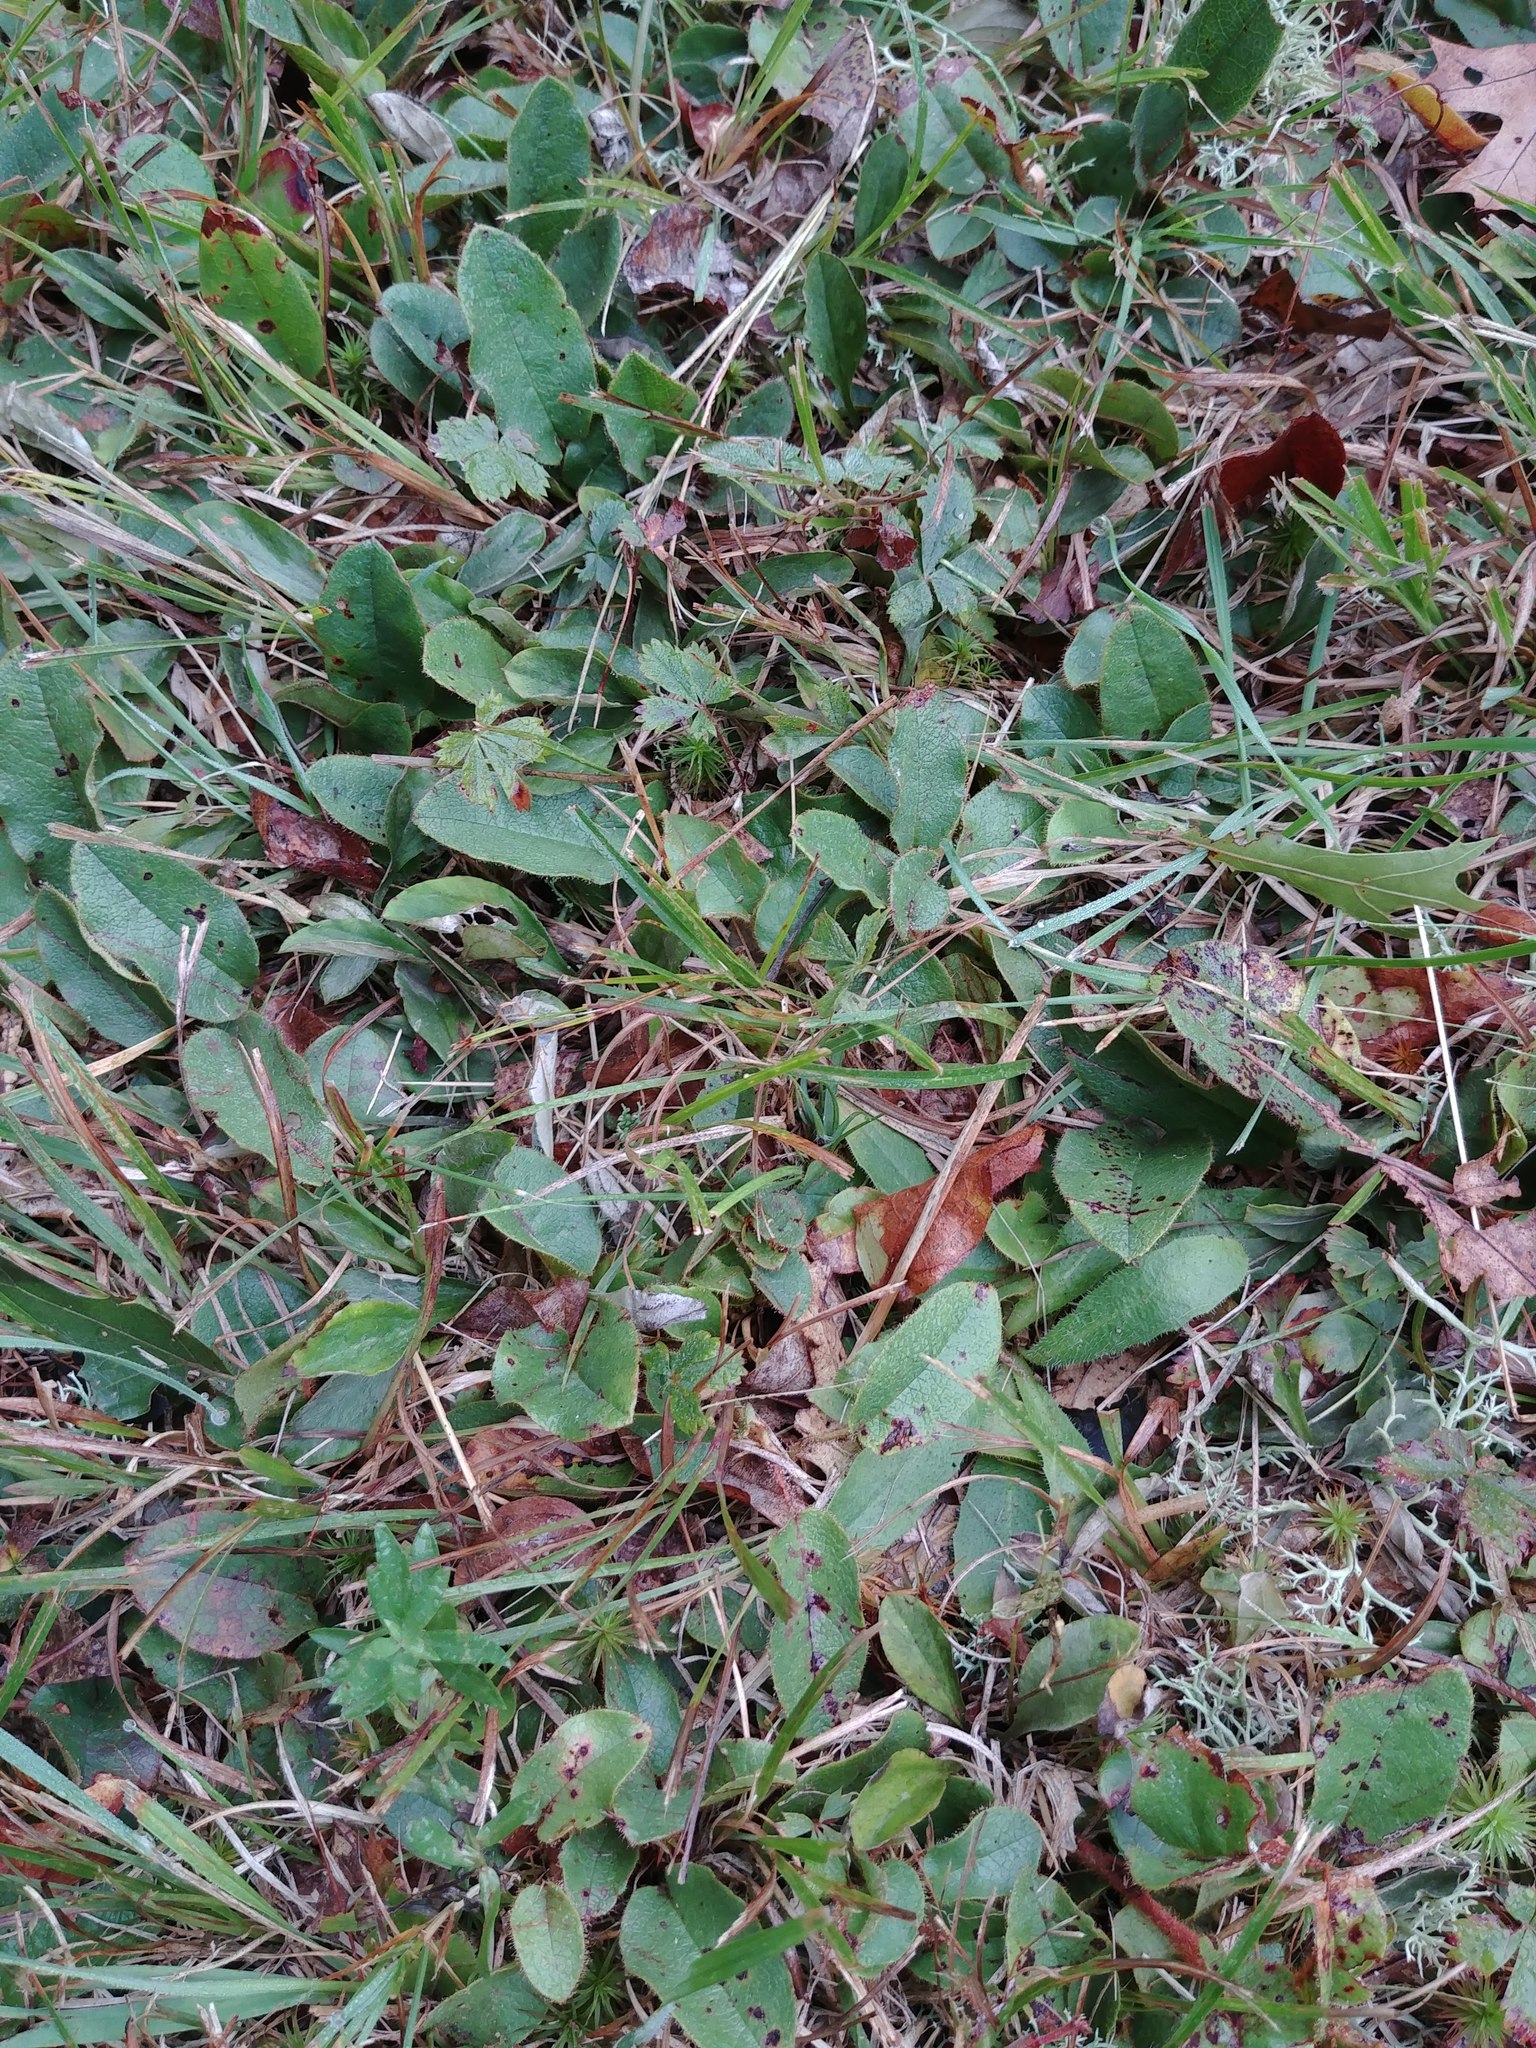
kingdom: Plantae
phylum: Tracheophyta
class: Magnoliopsida
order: Ericales
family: Ericaceae
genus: Epigaea
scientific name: Epigaea repens
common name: Gravelroot
